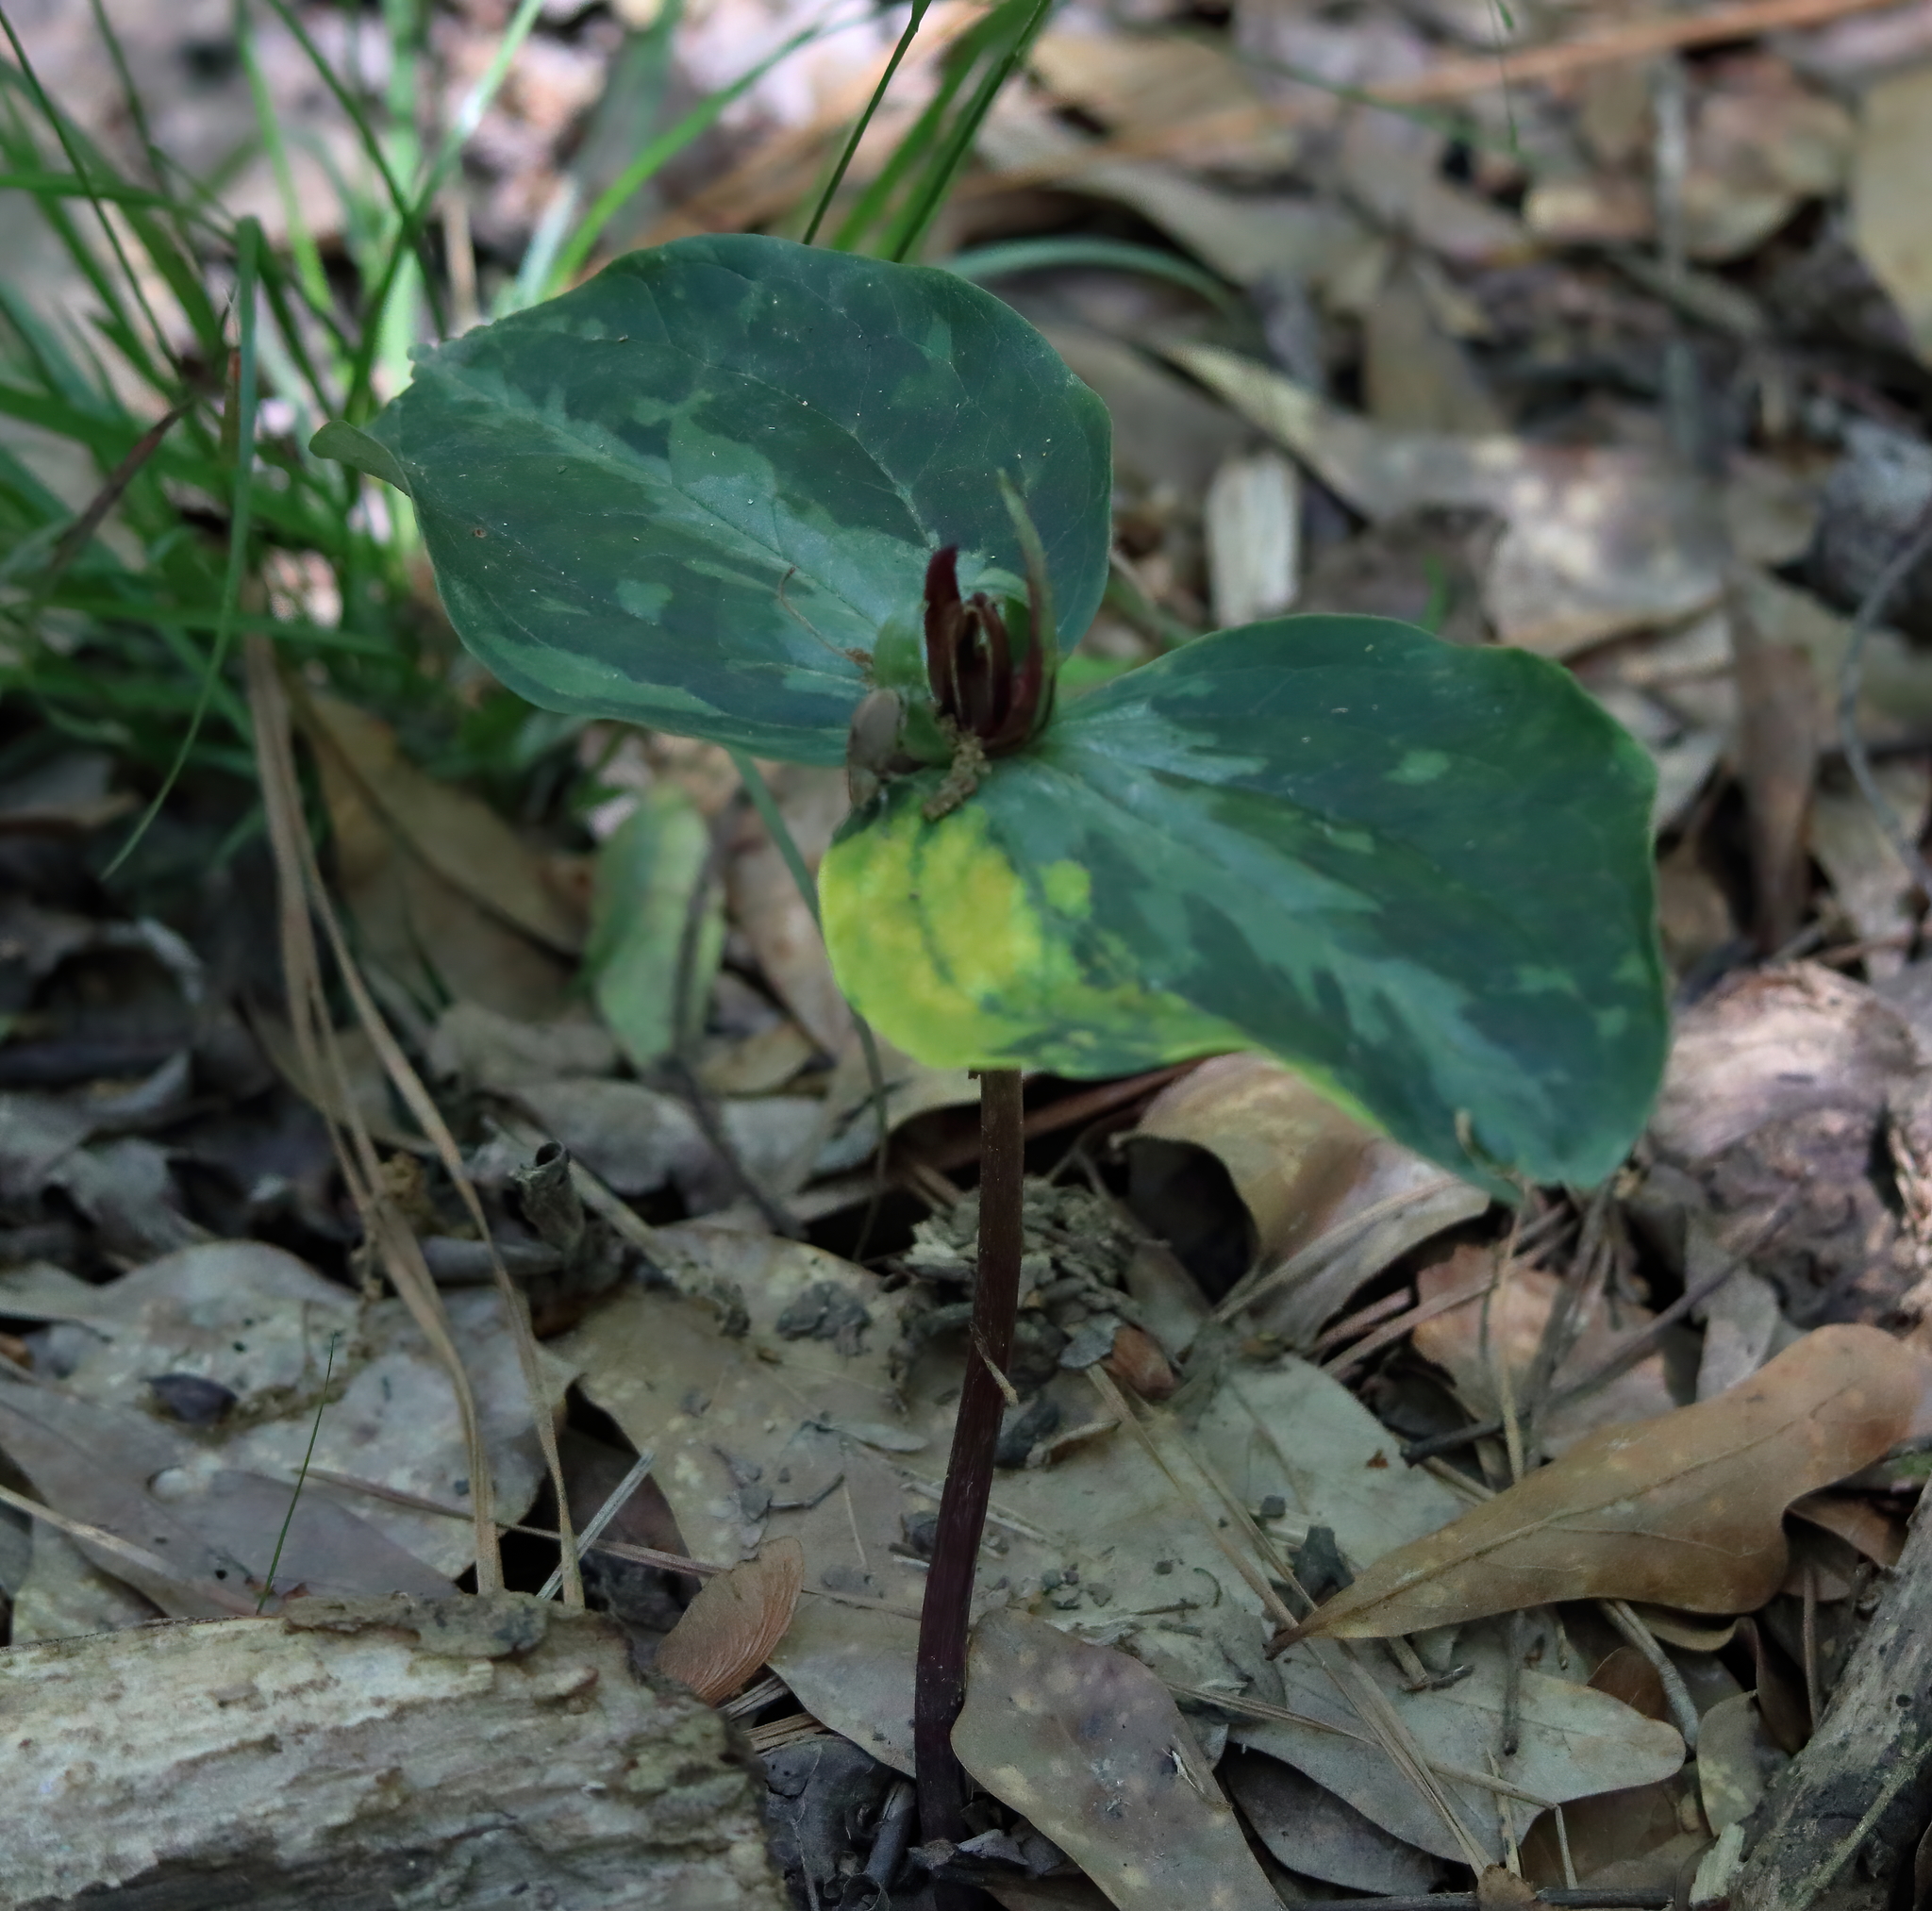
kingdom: Plantae
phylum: Tracheophyta
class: Liliopsida
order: Liliales
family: Melanthiaceae
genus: Trillium
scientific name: Trillium foetidissimum
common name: Mississippi river trillium
